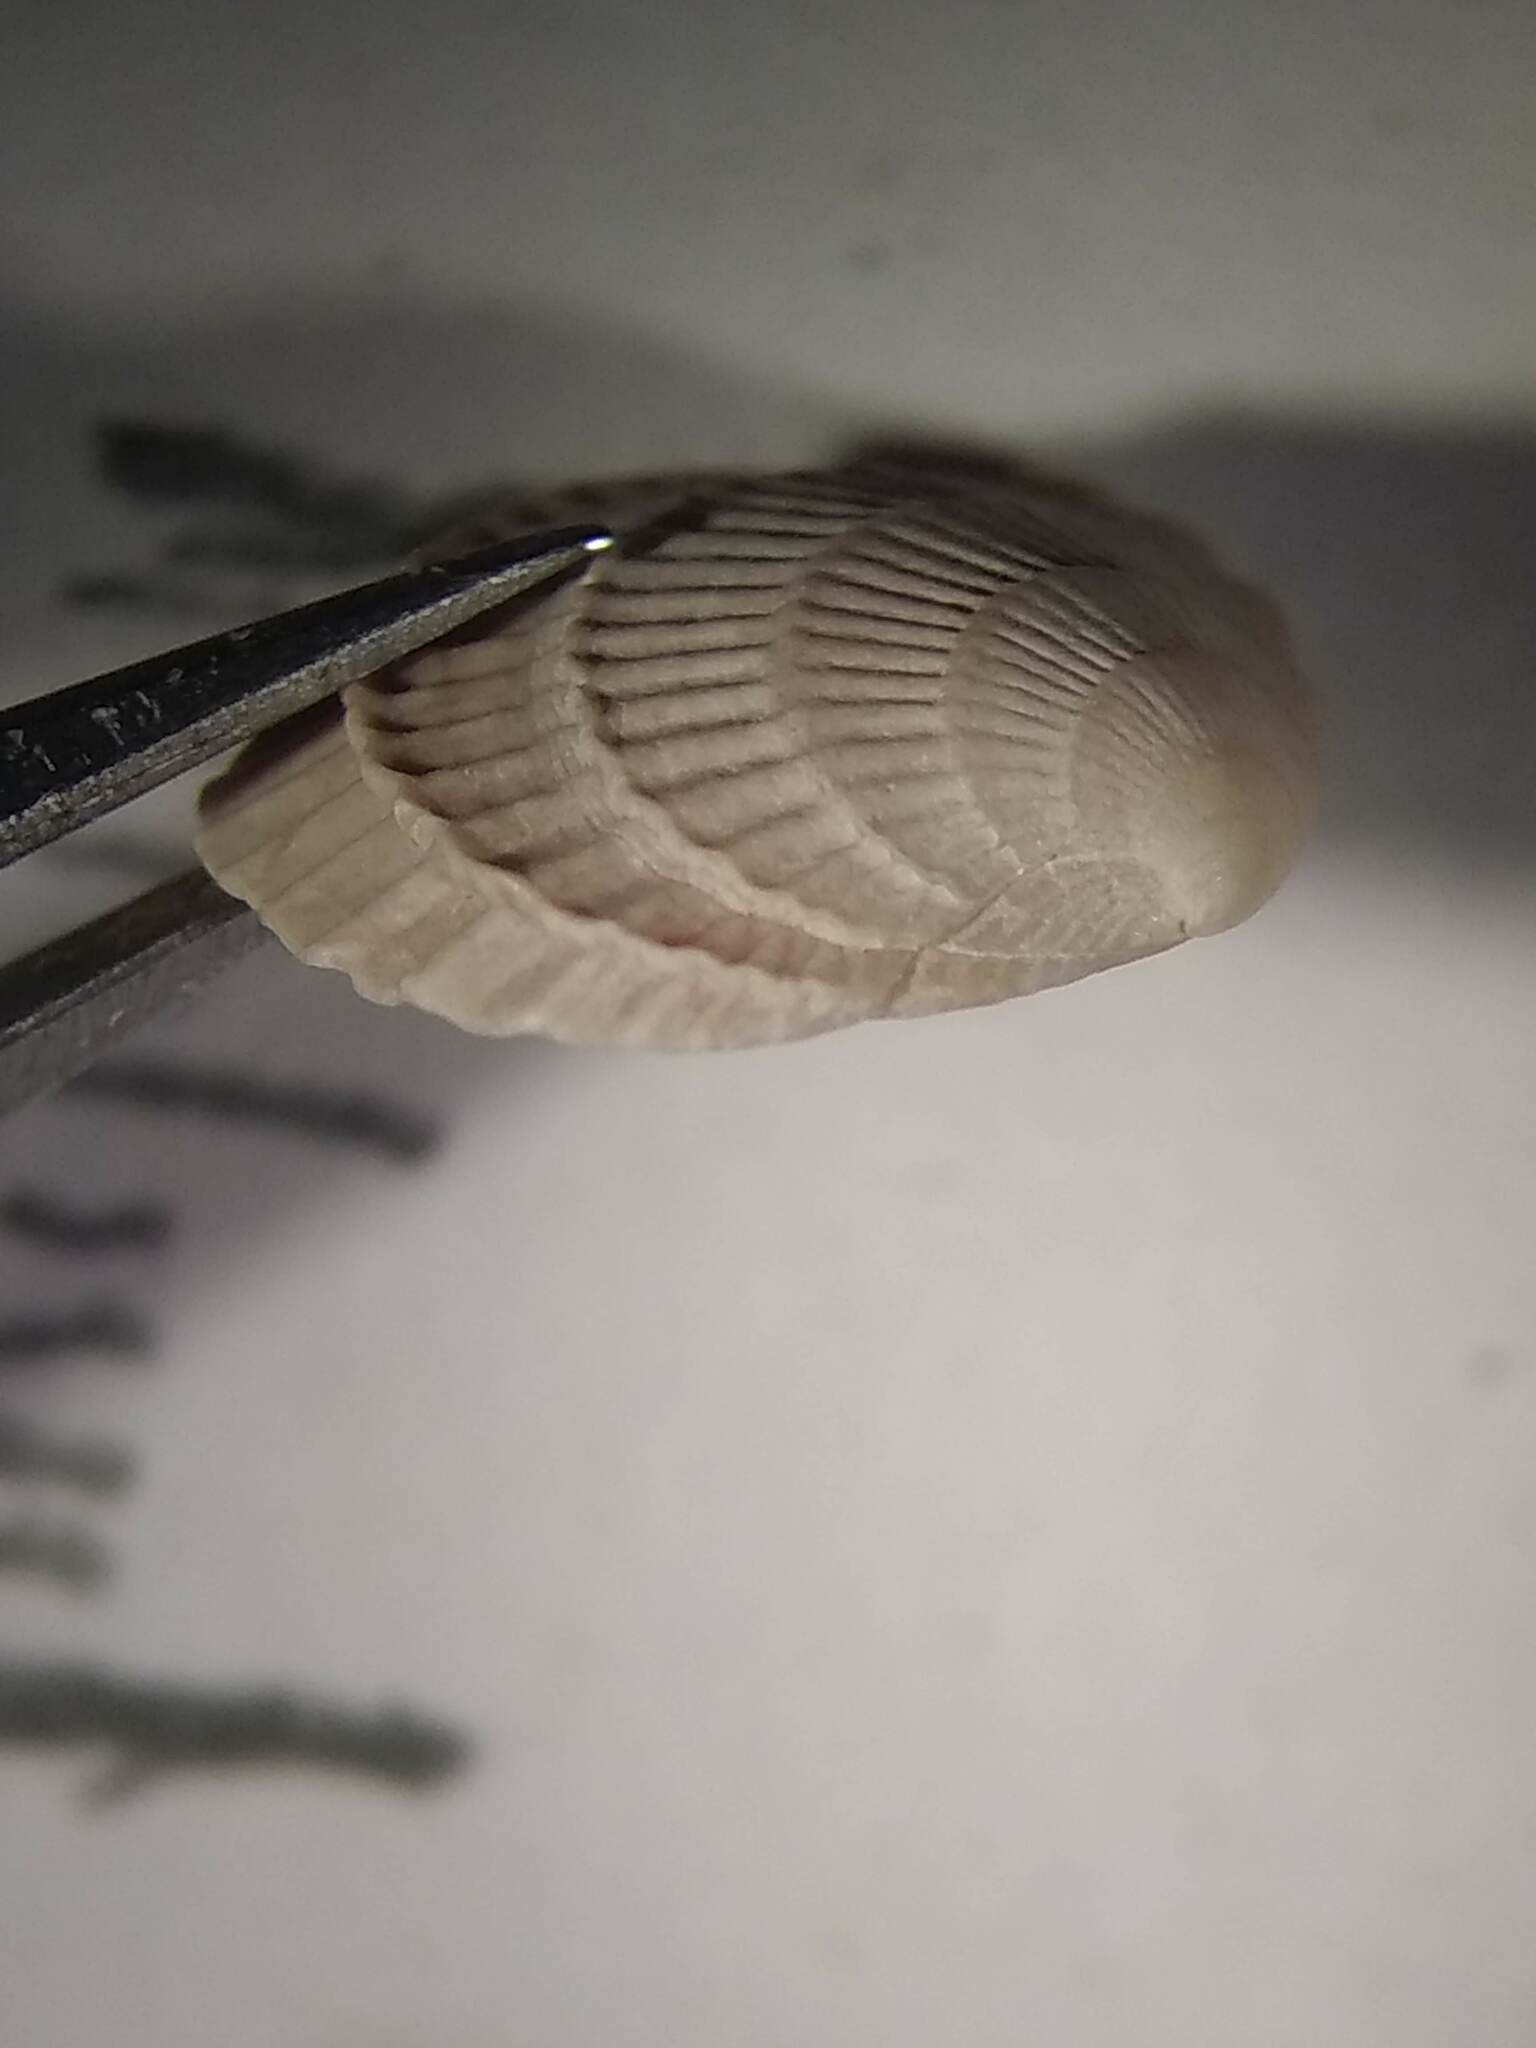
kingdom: Animalia
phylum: Mollusca
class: Bivalvia
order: Venerida
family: Veneridae
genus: Chione
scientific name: Chione elevata
